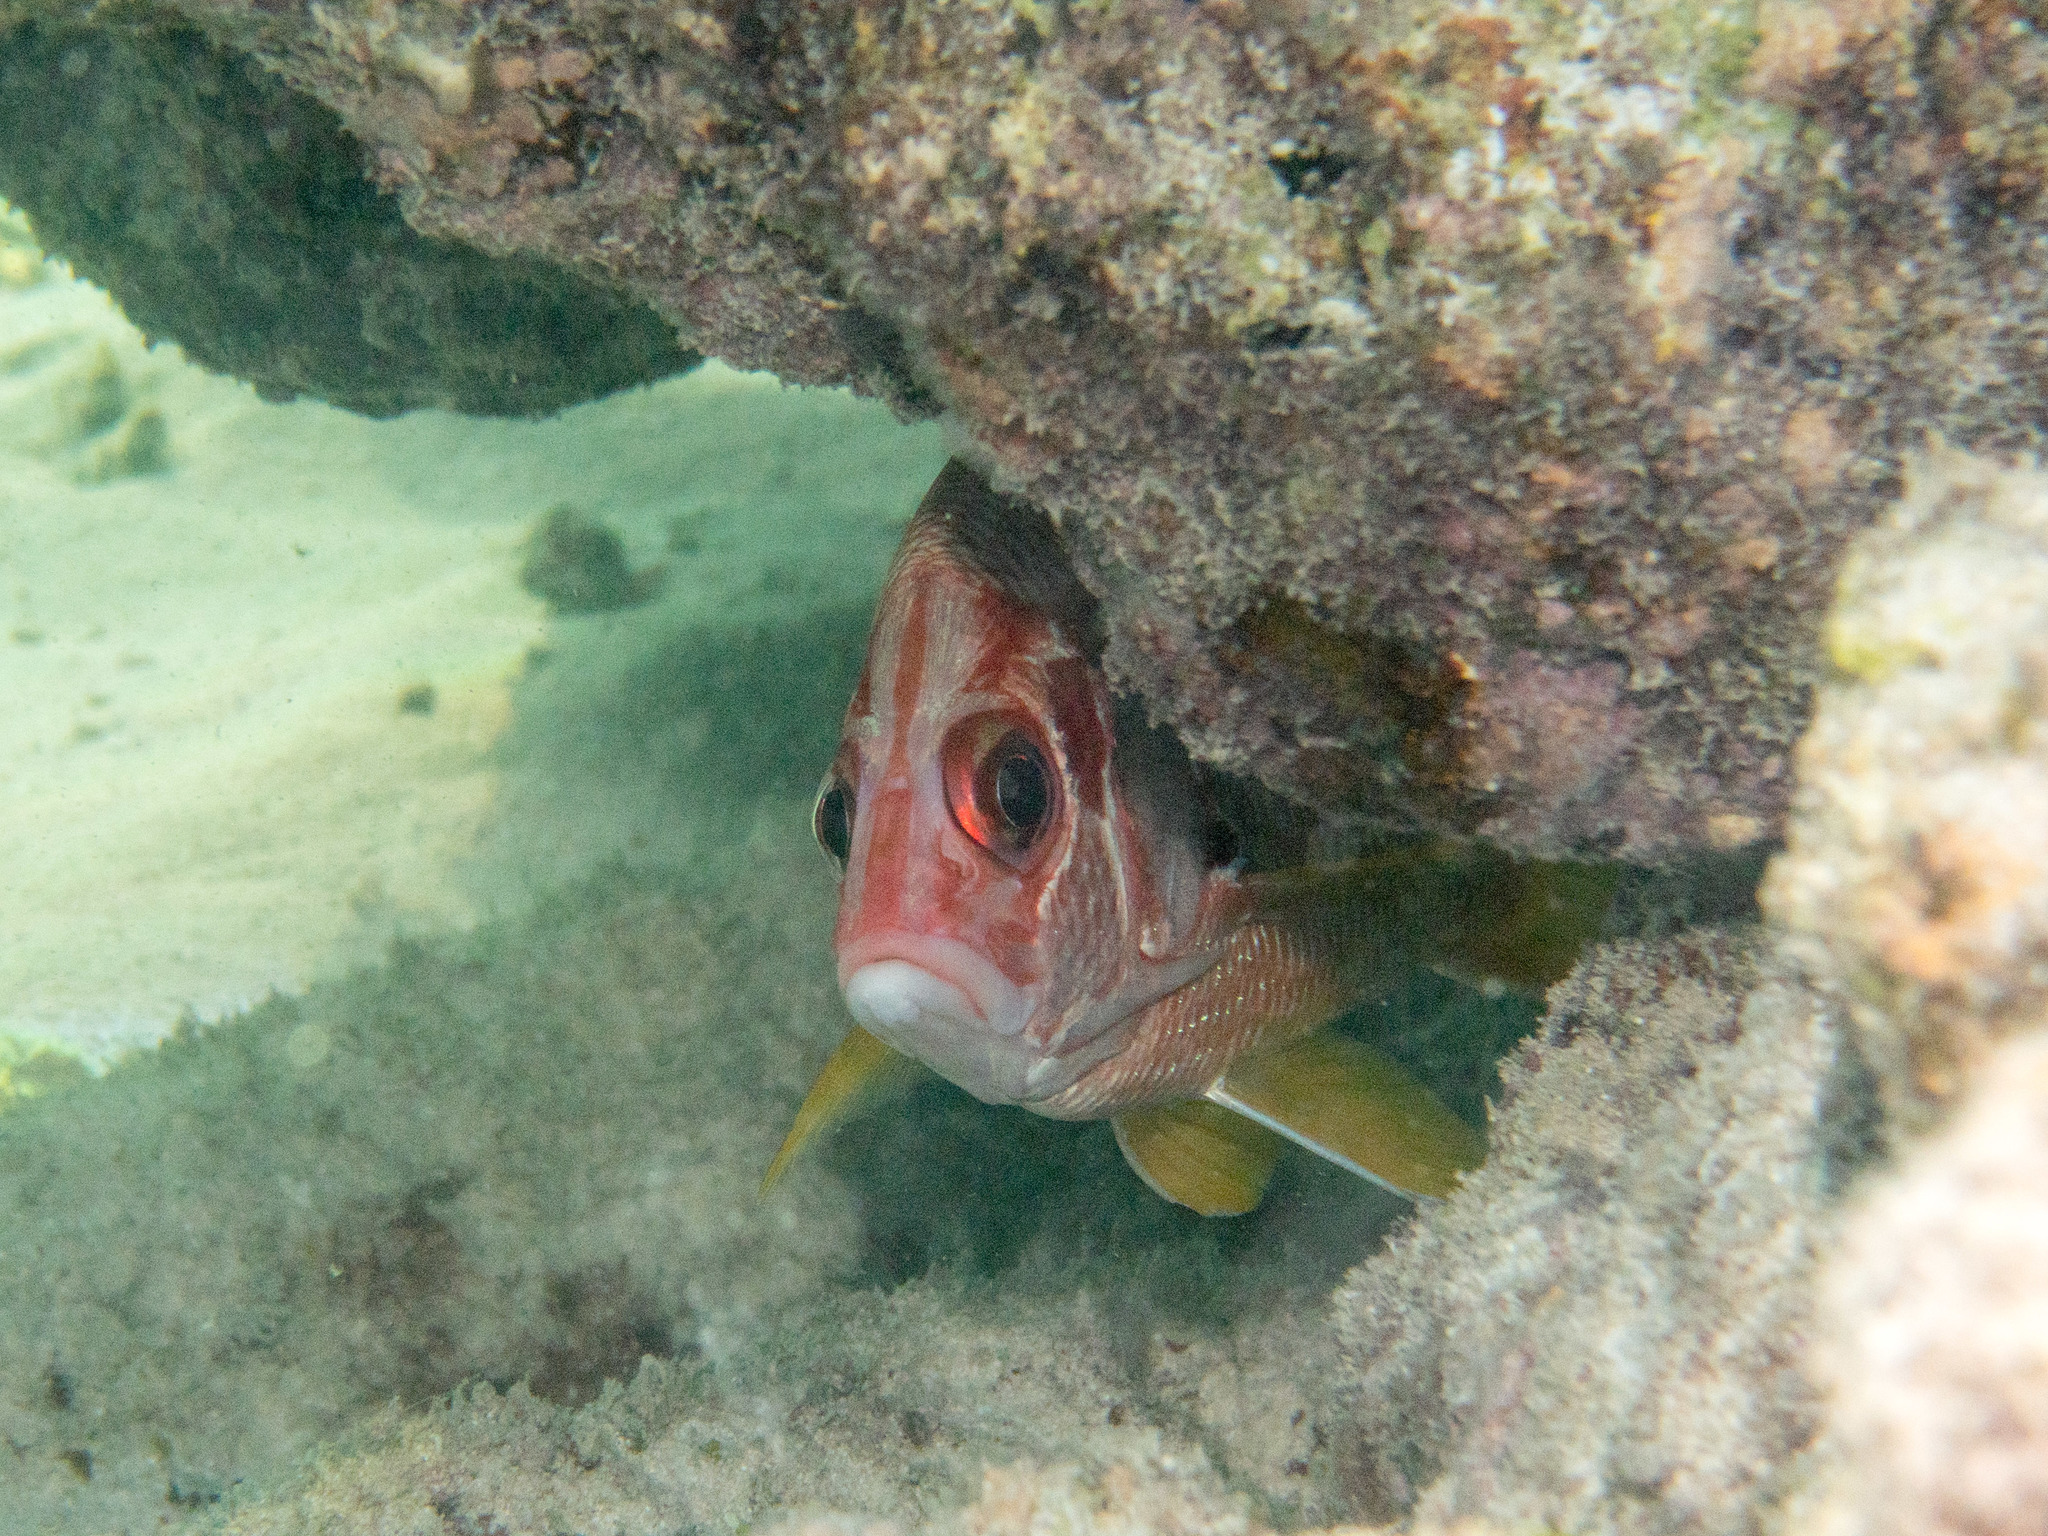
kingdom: Animalia
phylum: Chordata
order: Beryciformes
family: Holocentridae
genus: Sargocentron
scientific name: Sargocentron spiniferum
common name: Giant squirrelfish
